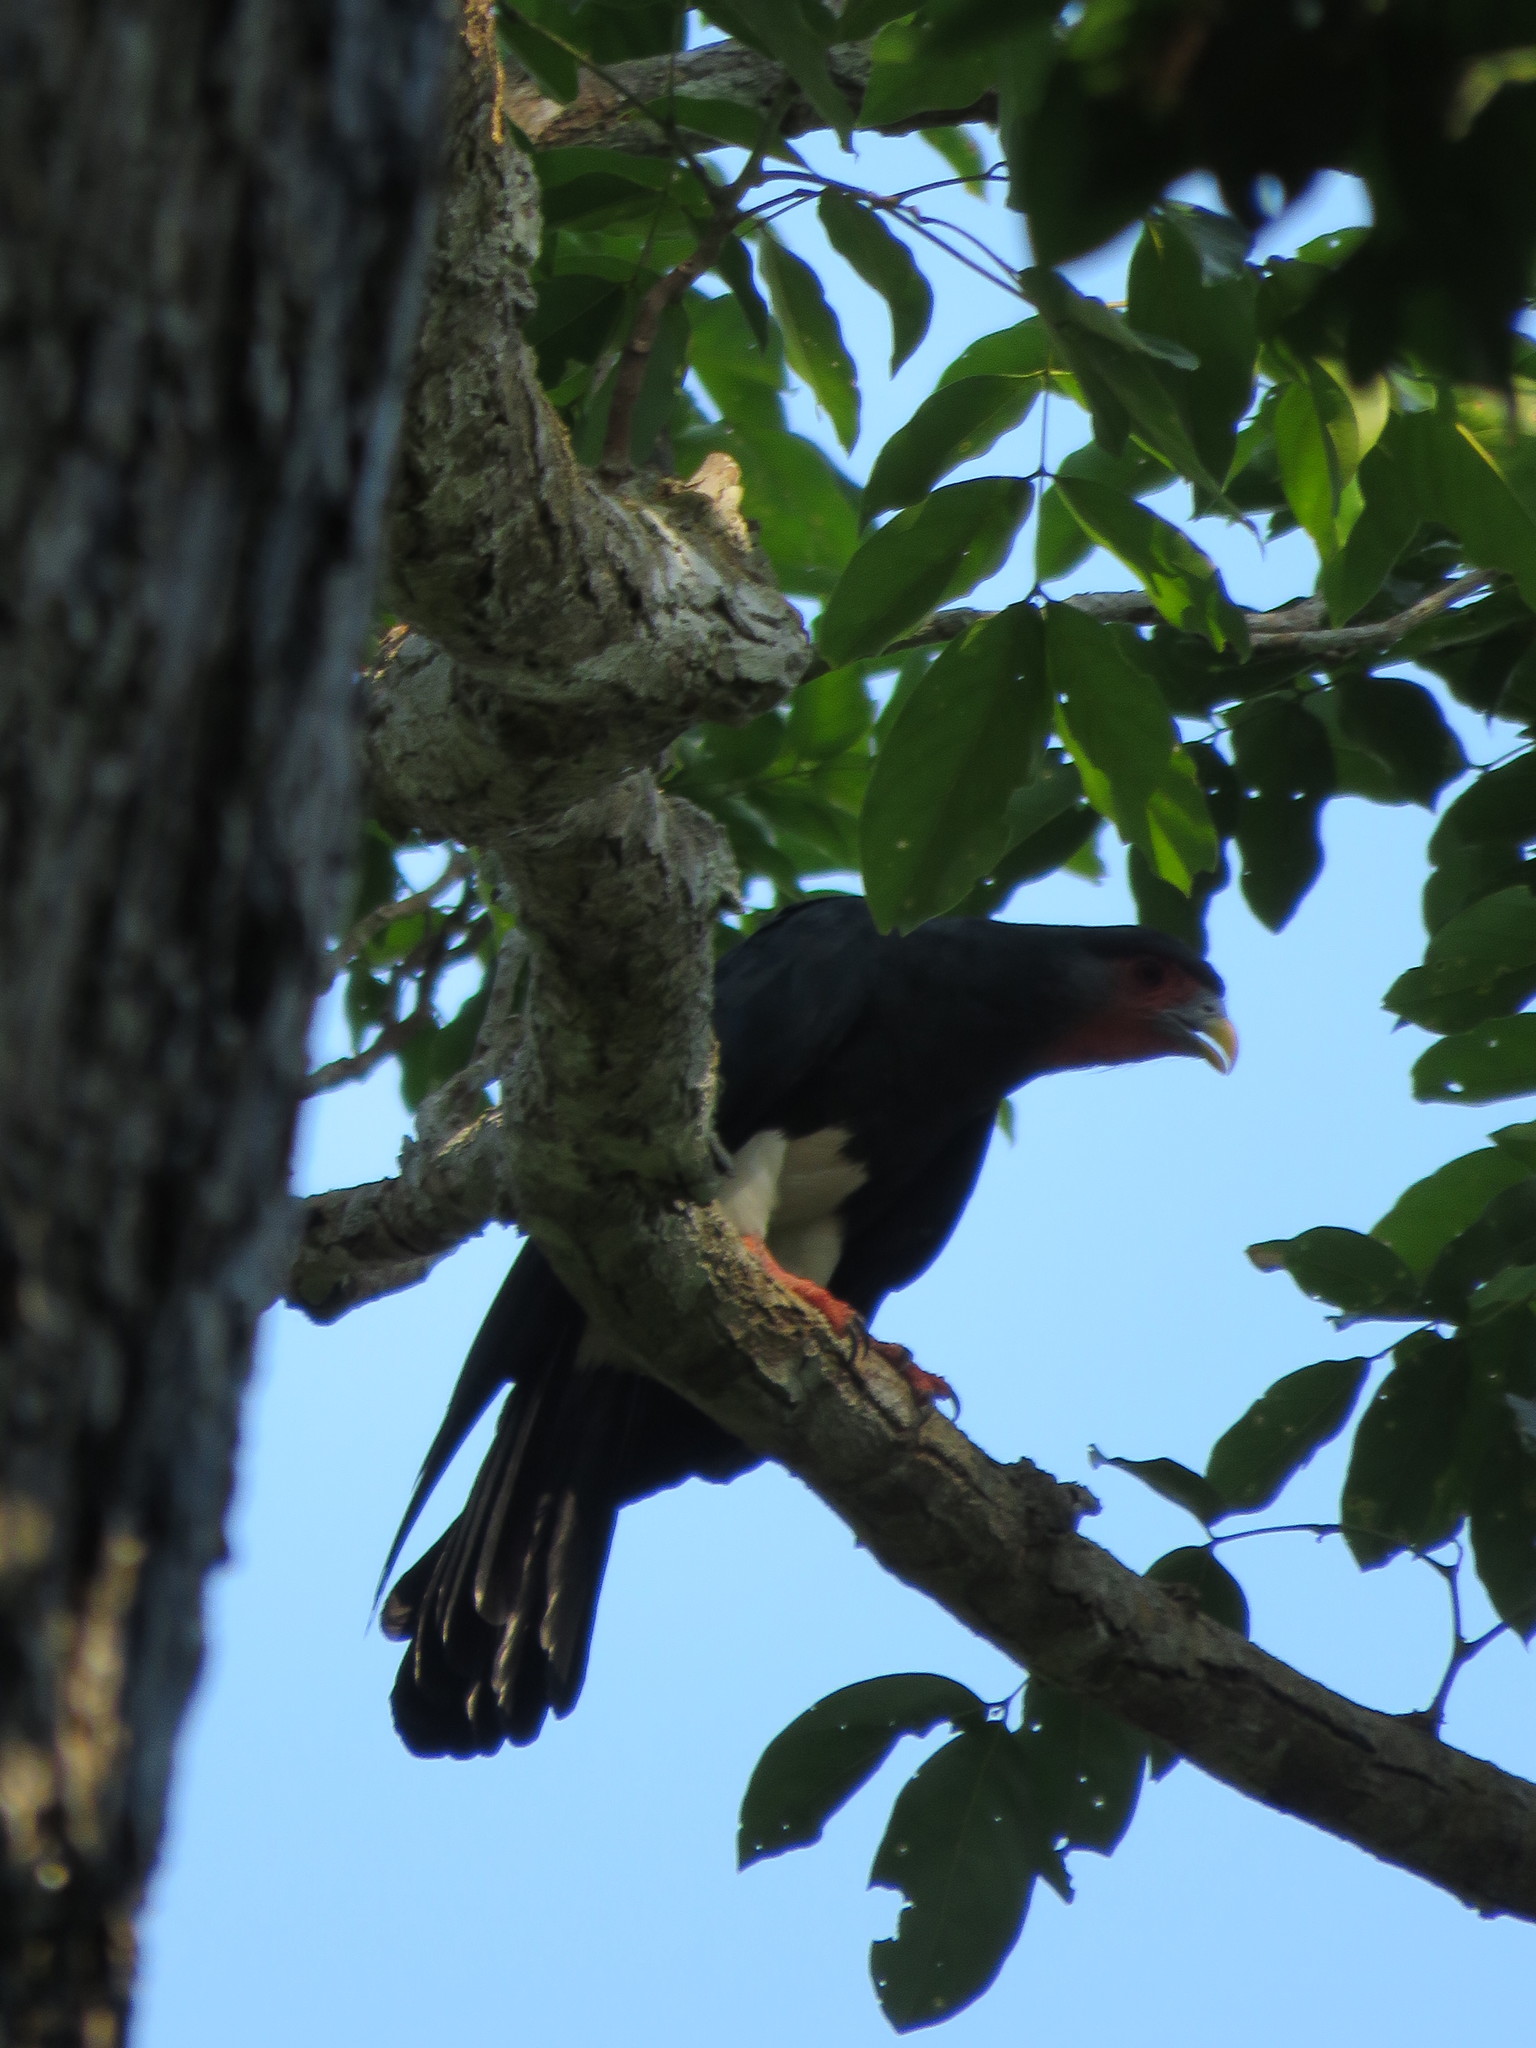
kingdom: Animalia
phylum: Chordata
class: Aves
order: Falconiformes
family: Falconidae
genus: Ibycter
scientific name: Ibycter americanus
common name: Red-throated caracara
